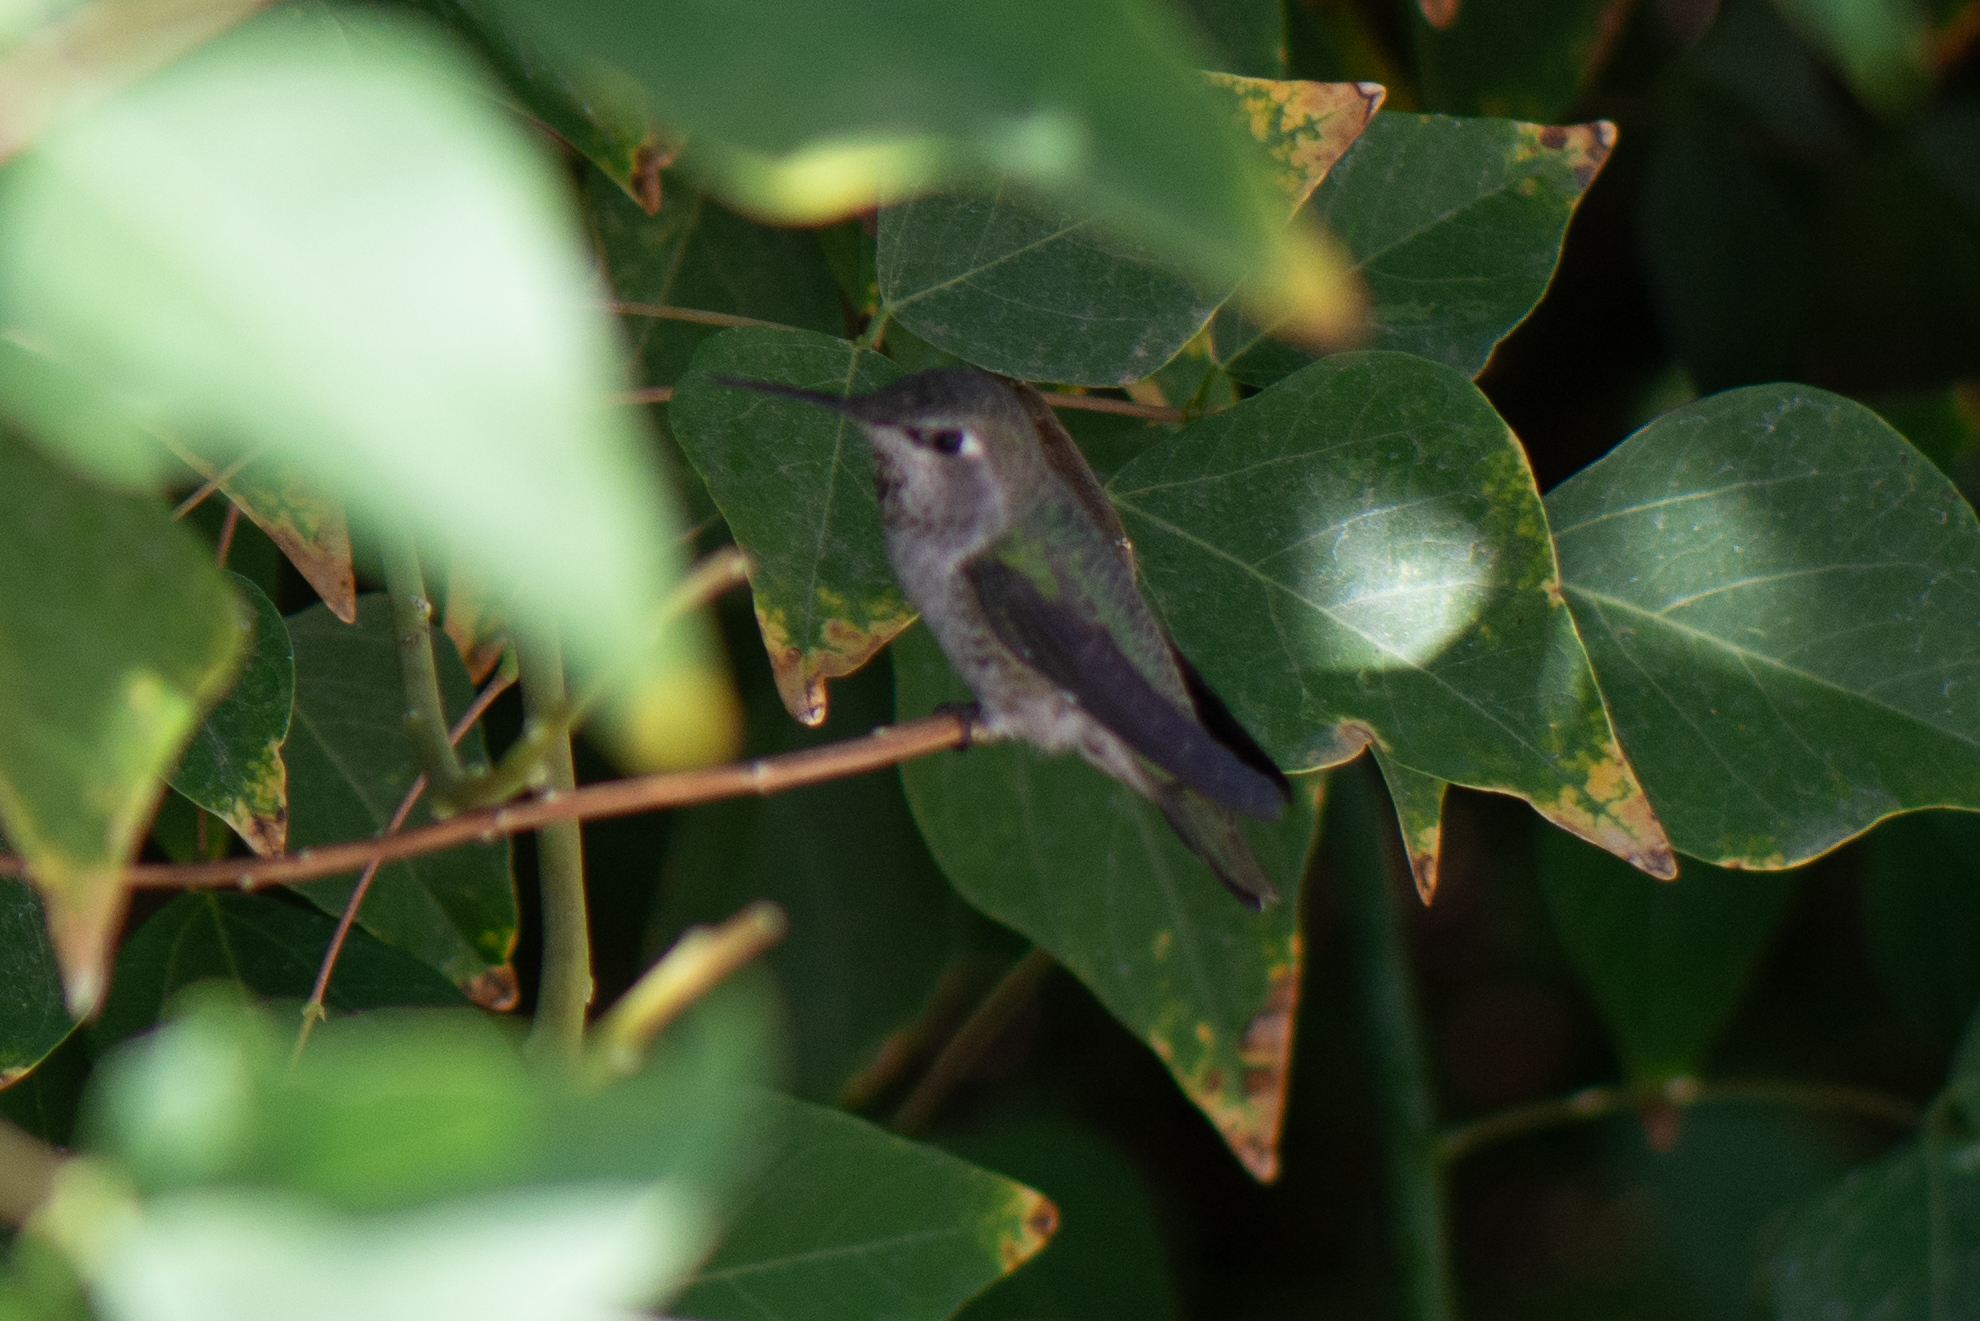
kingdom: Animalia
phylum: Chordata
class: Aves
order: Apodiformes
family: Trochilidae
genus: Calypte
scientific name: Calypte anna
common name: Anna's hummingbird
